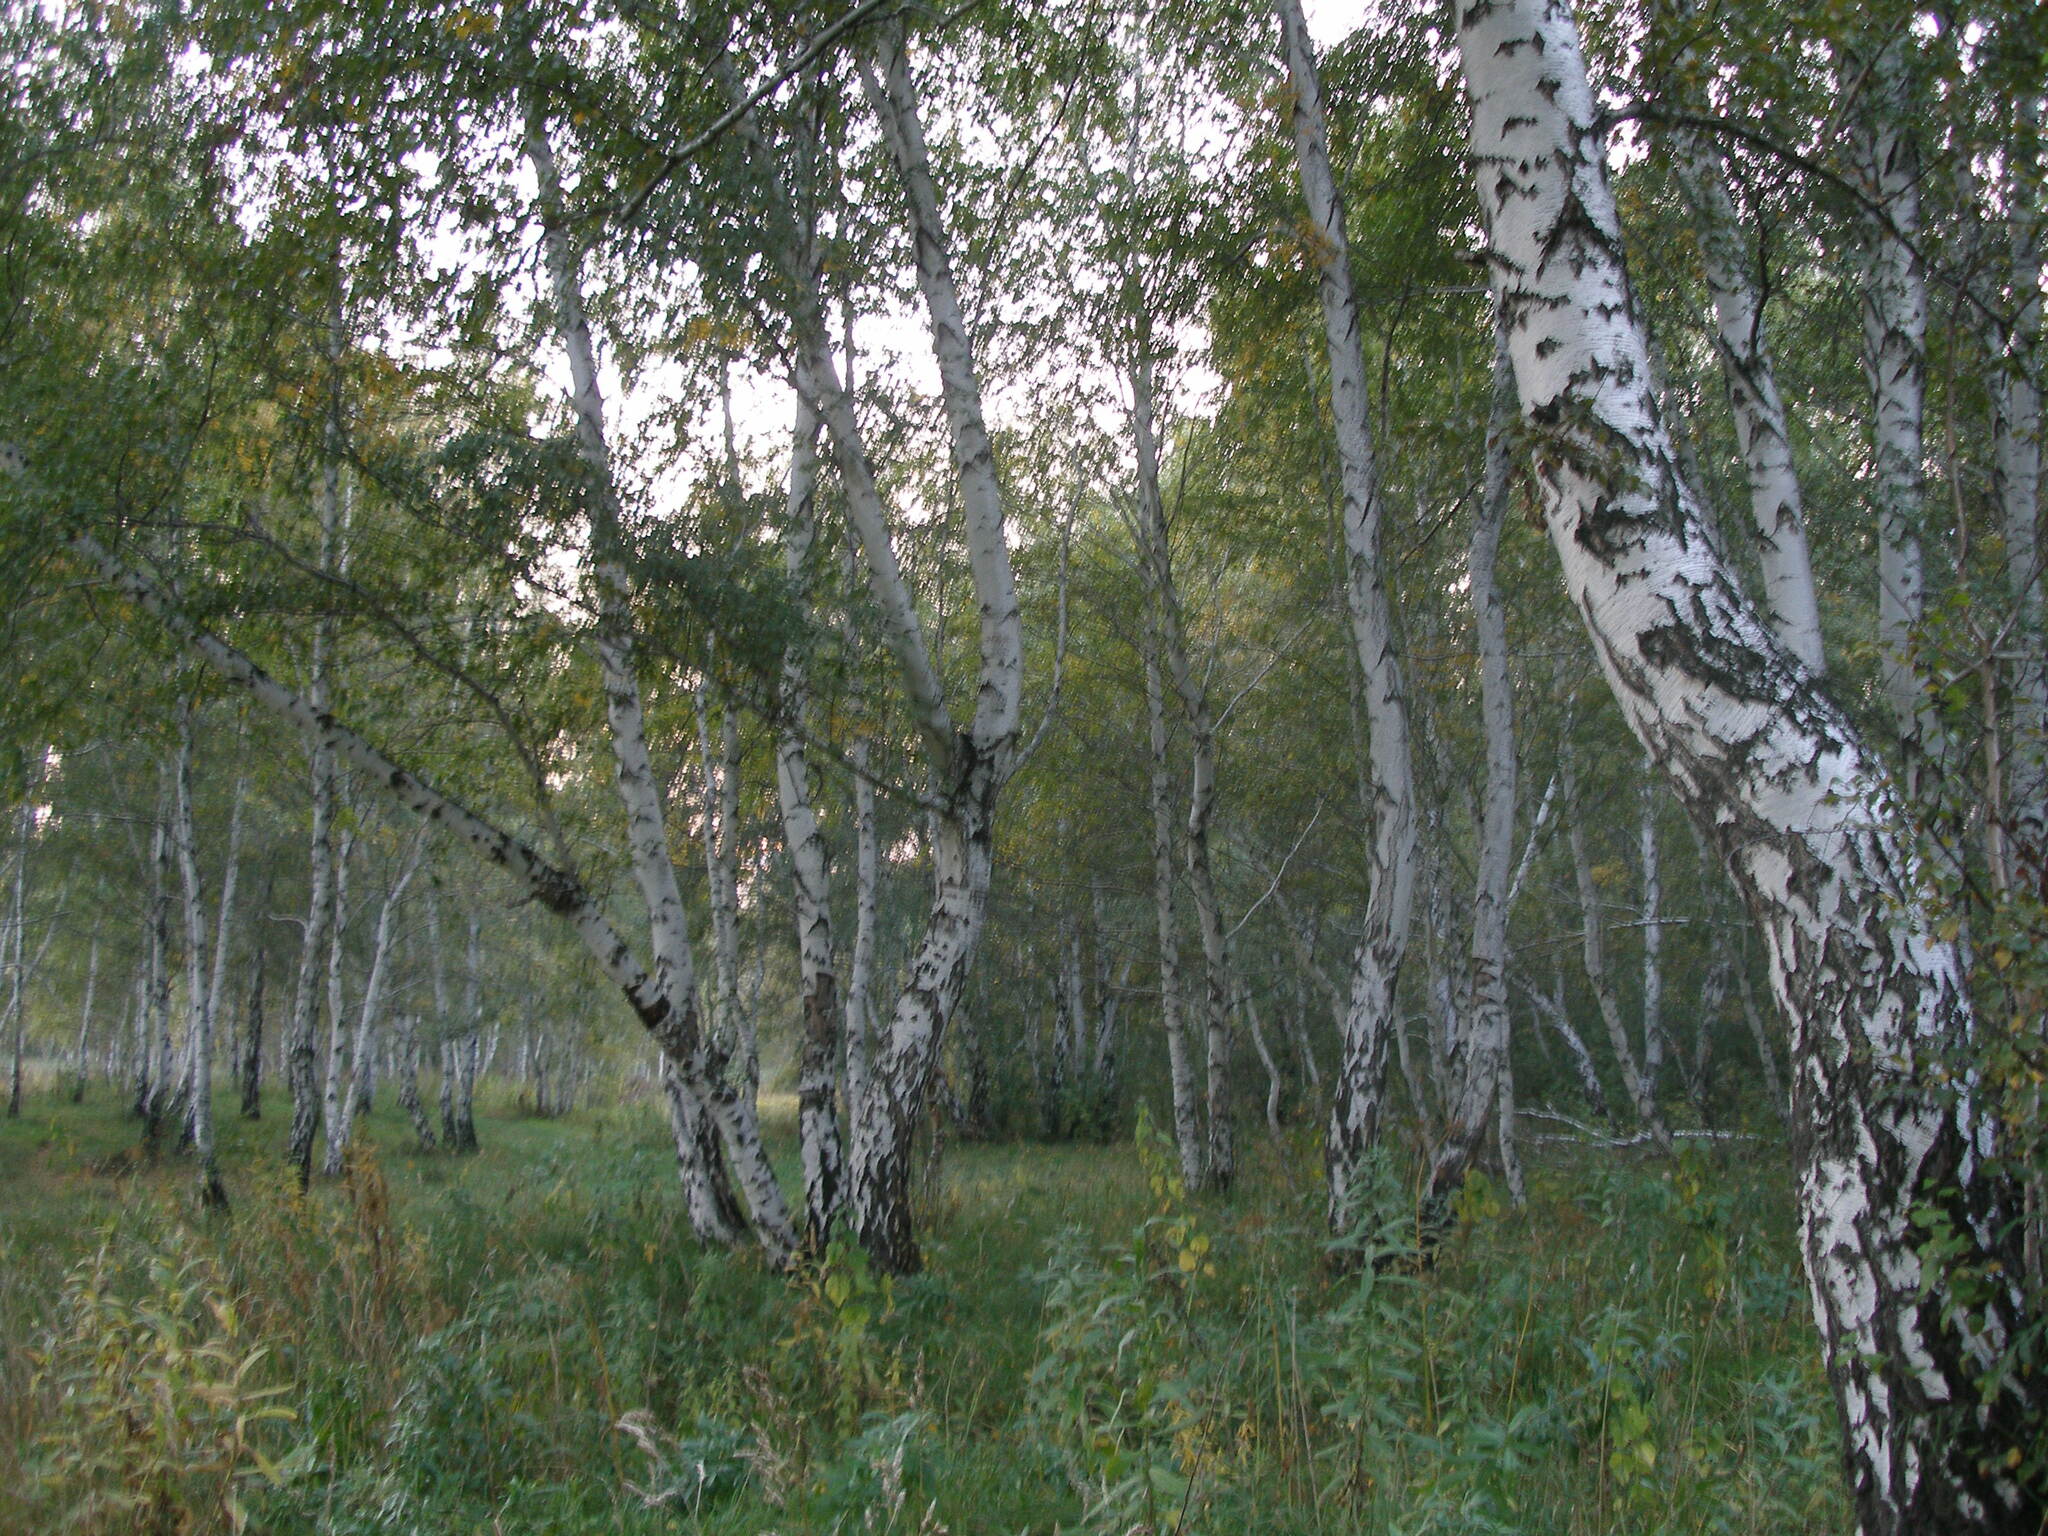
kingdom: Plantae
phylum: Tracheophyta
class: Magnoliopsida
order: Fagales
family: Betulaceae
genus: Betula
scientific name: Betula pendula
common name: Silver birch
